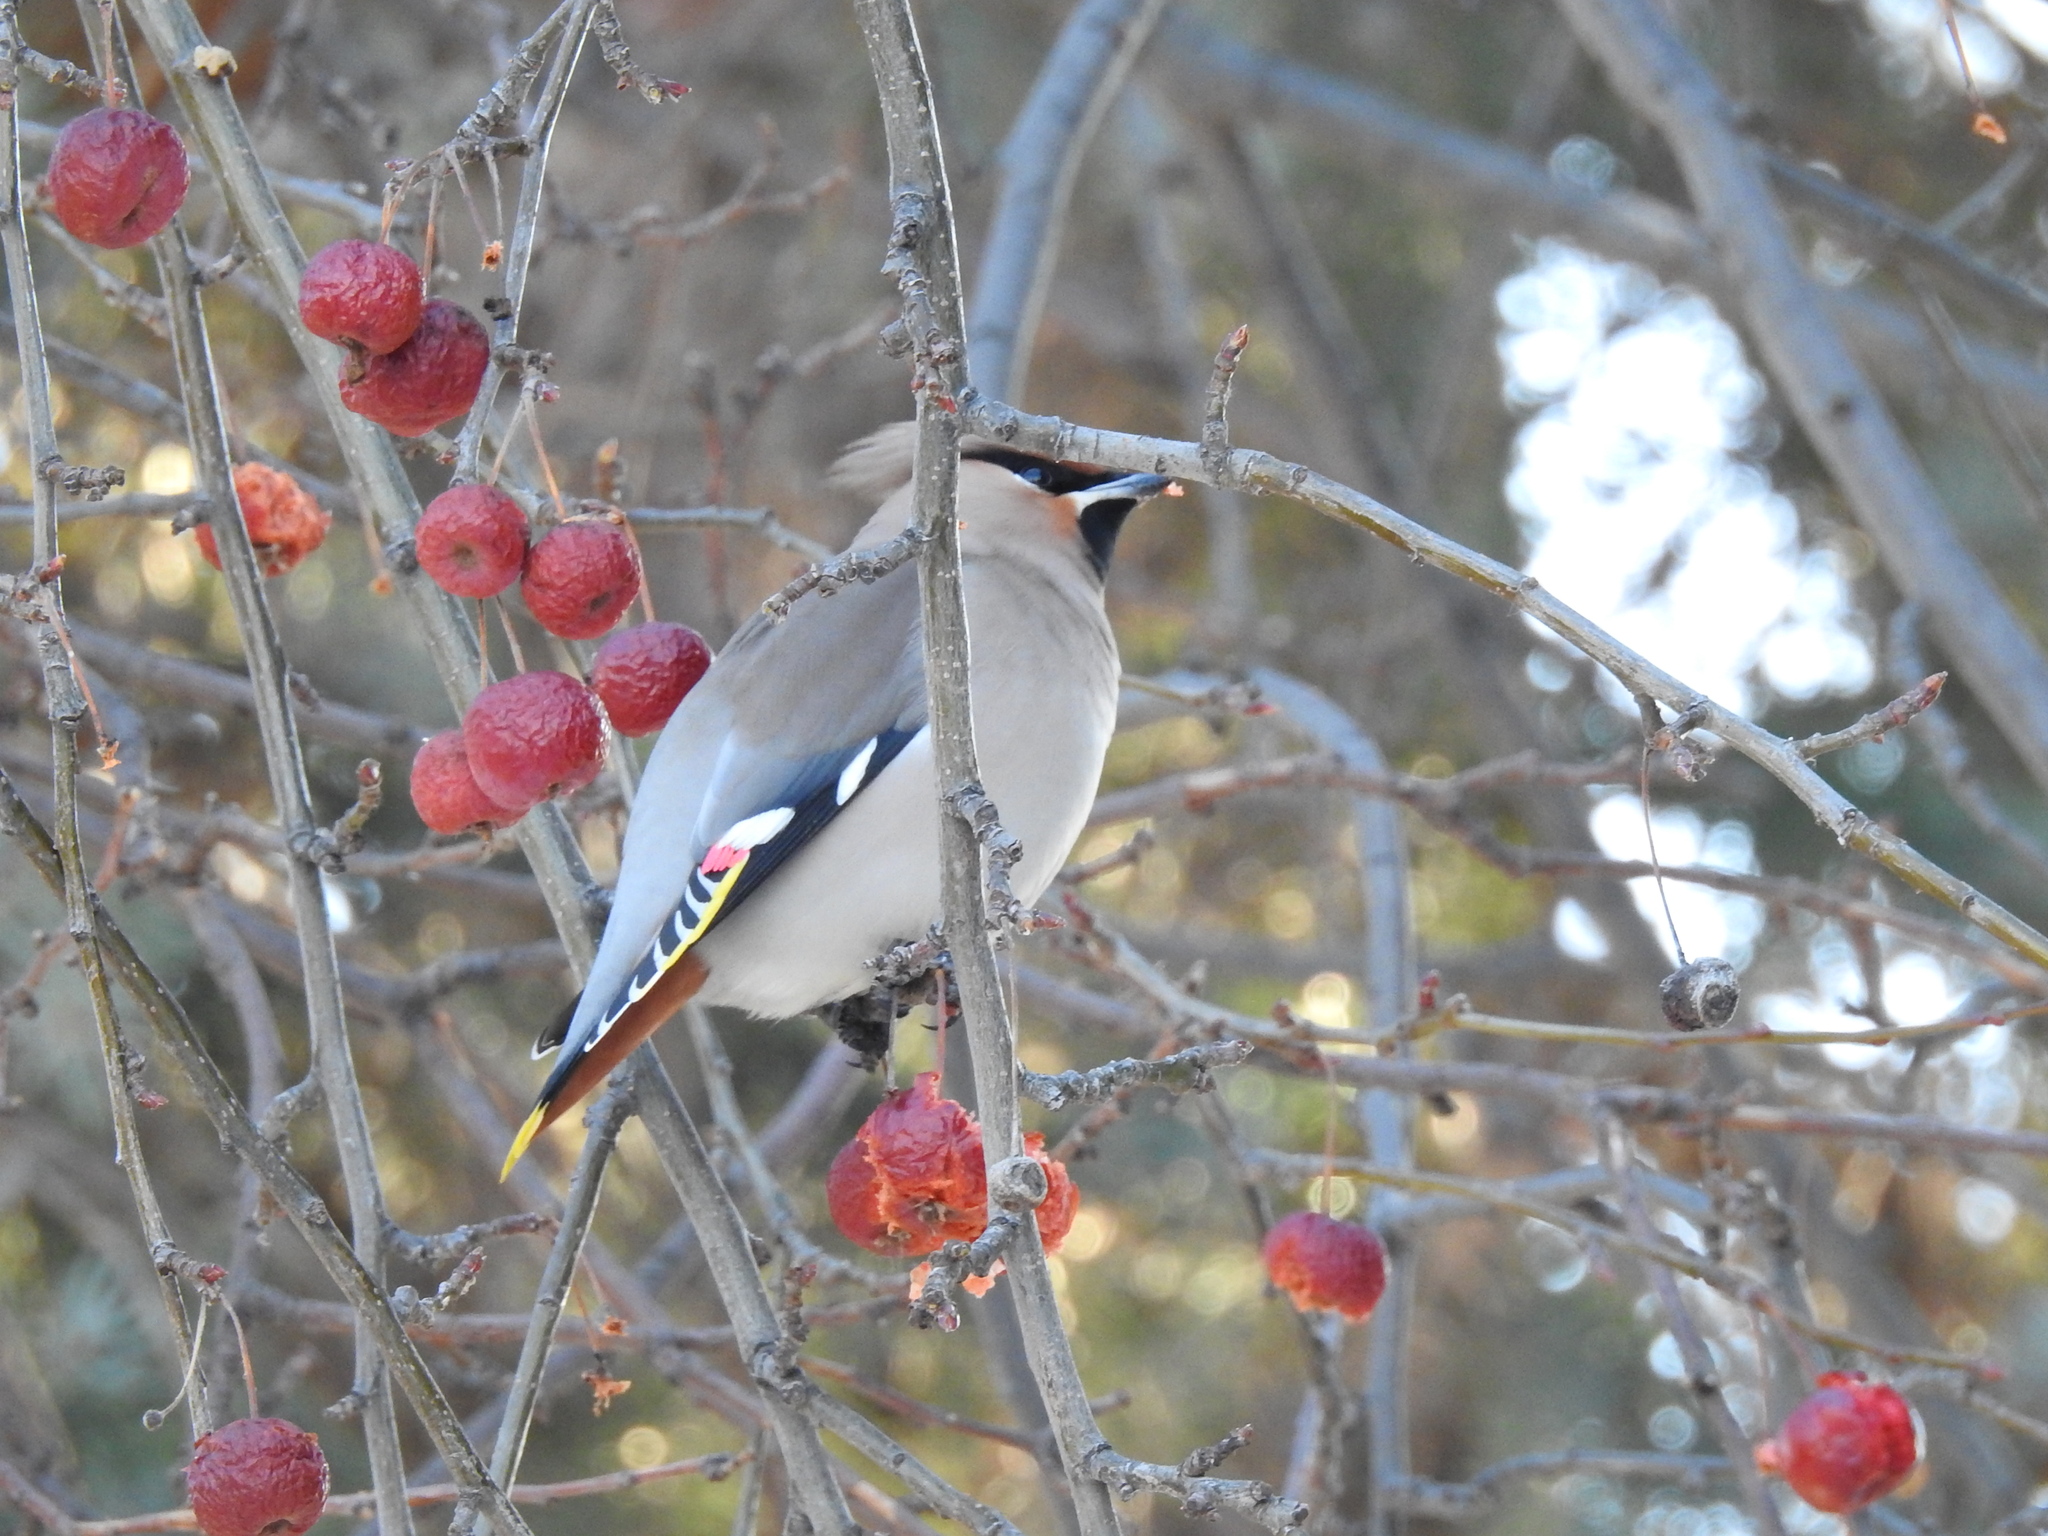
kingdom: Animalia
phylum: Chordata
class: Aves
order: Passeriformes
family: Bombycillidae
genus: Bombycilla
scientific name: Bombycilla garrulus
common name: Bohemian waxwing
